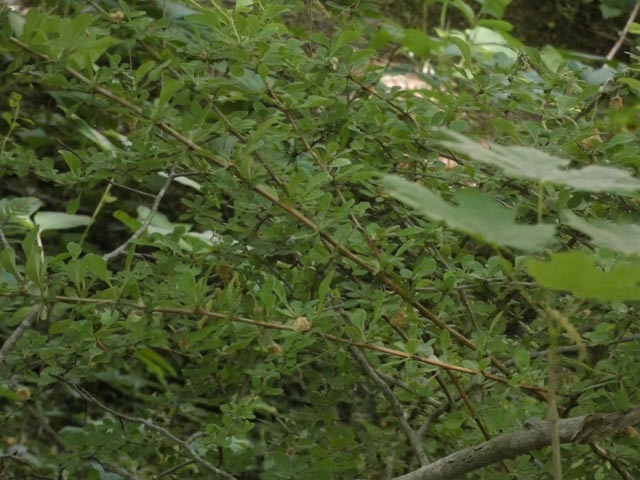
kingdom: Plantae
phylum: Tracheophyta
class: Magnoliopsida
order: Ranunculales
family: Berberidaceae
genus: Berberis
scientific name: Berberis thunbergii
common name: Japanese barberry
